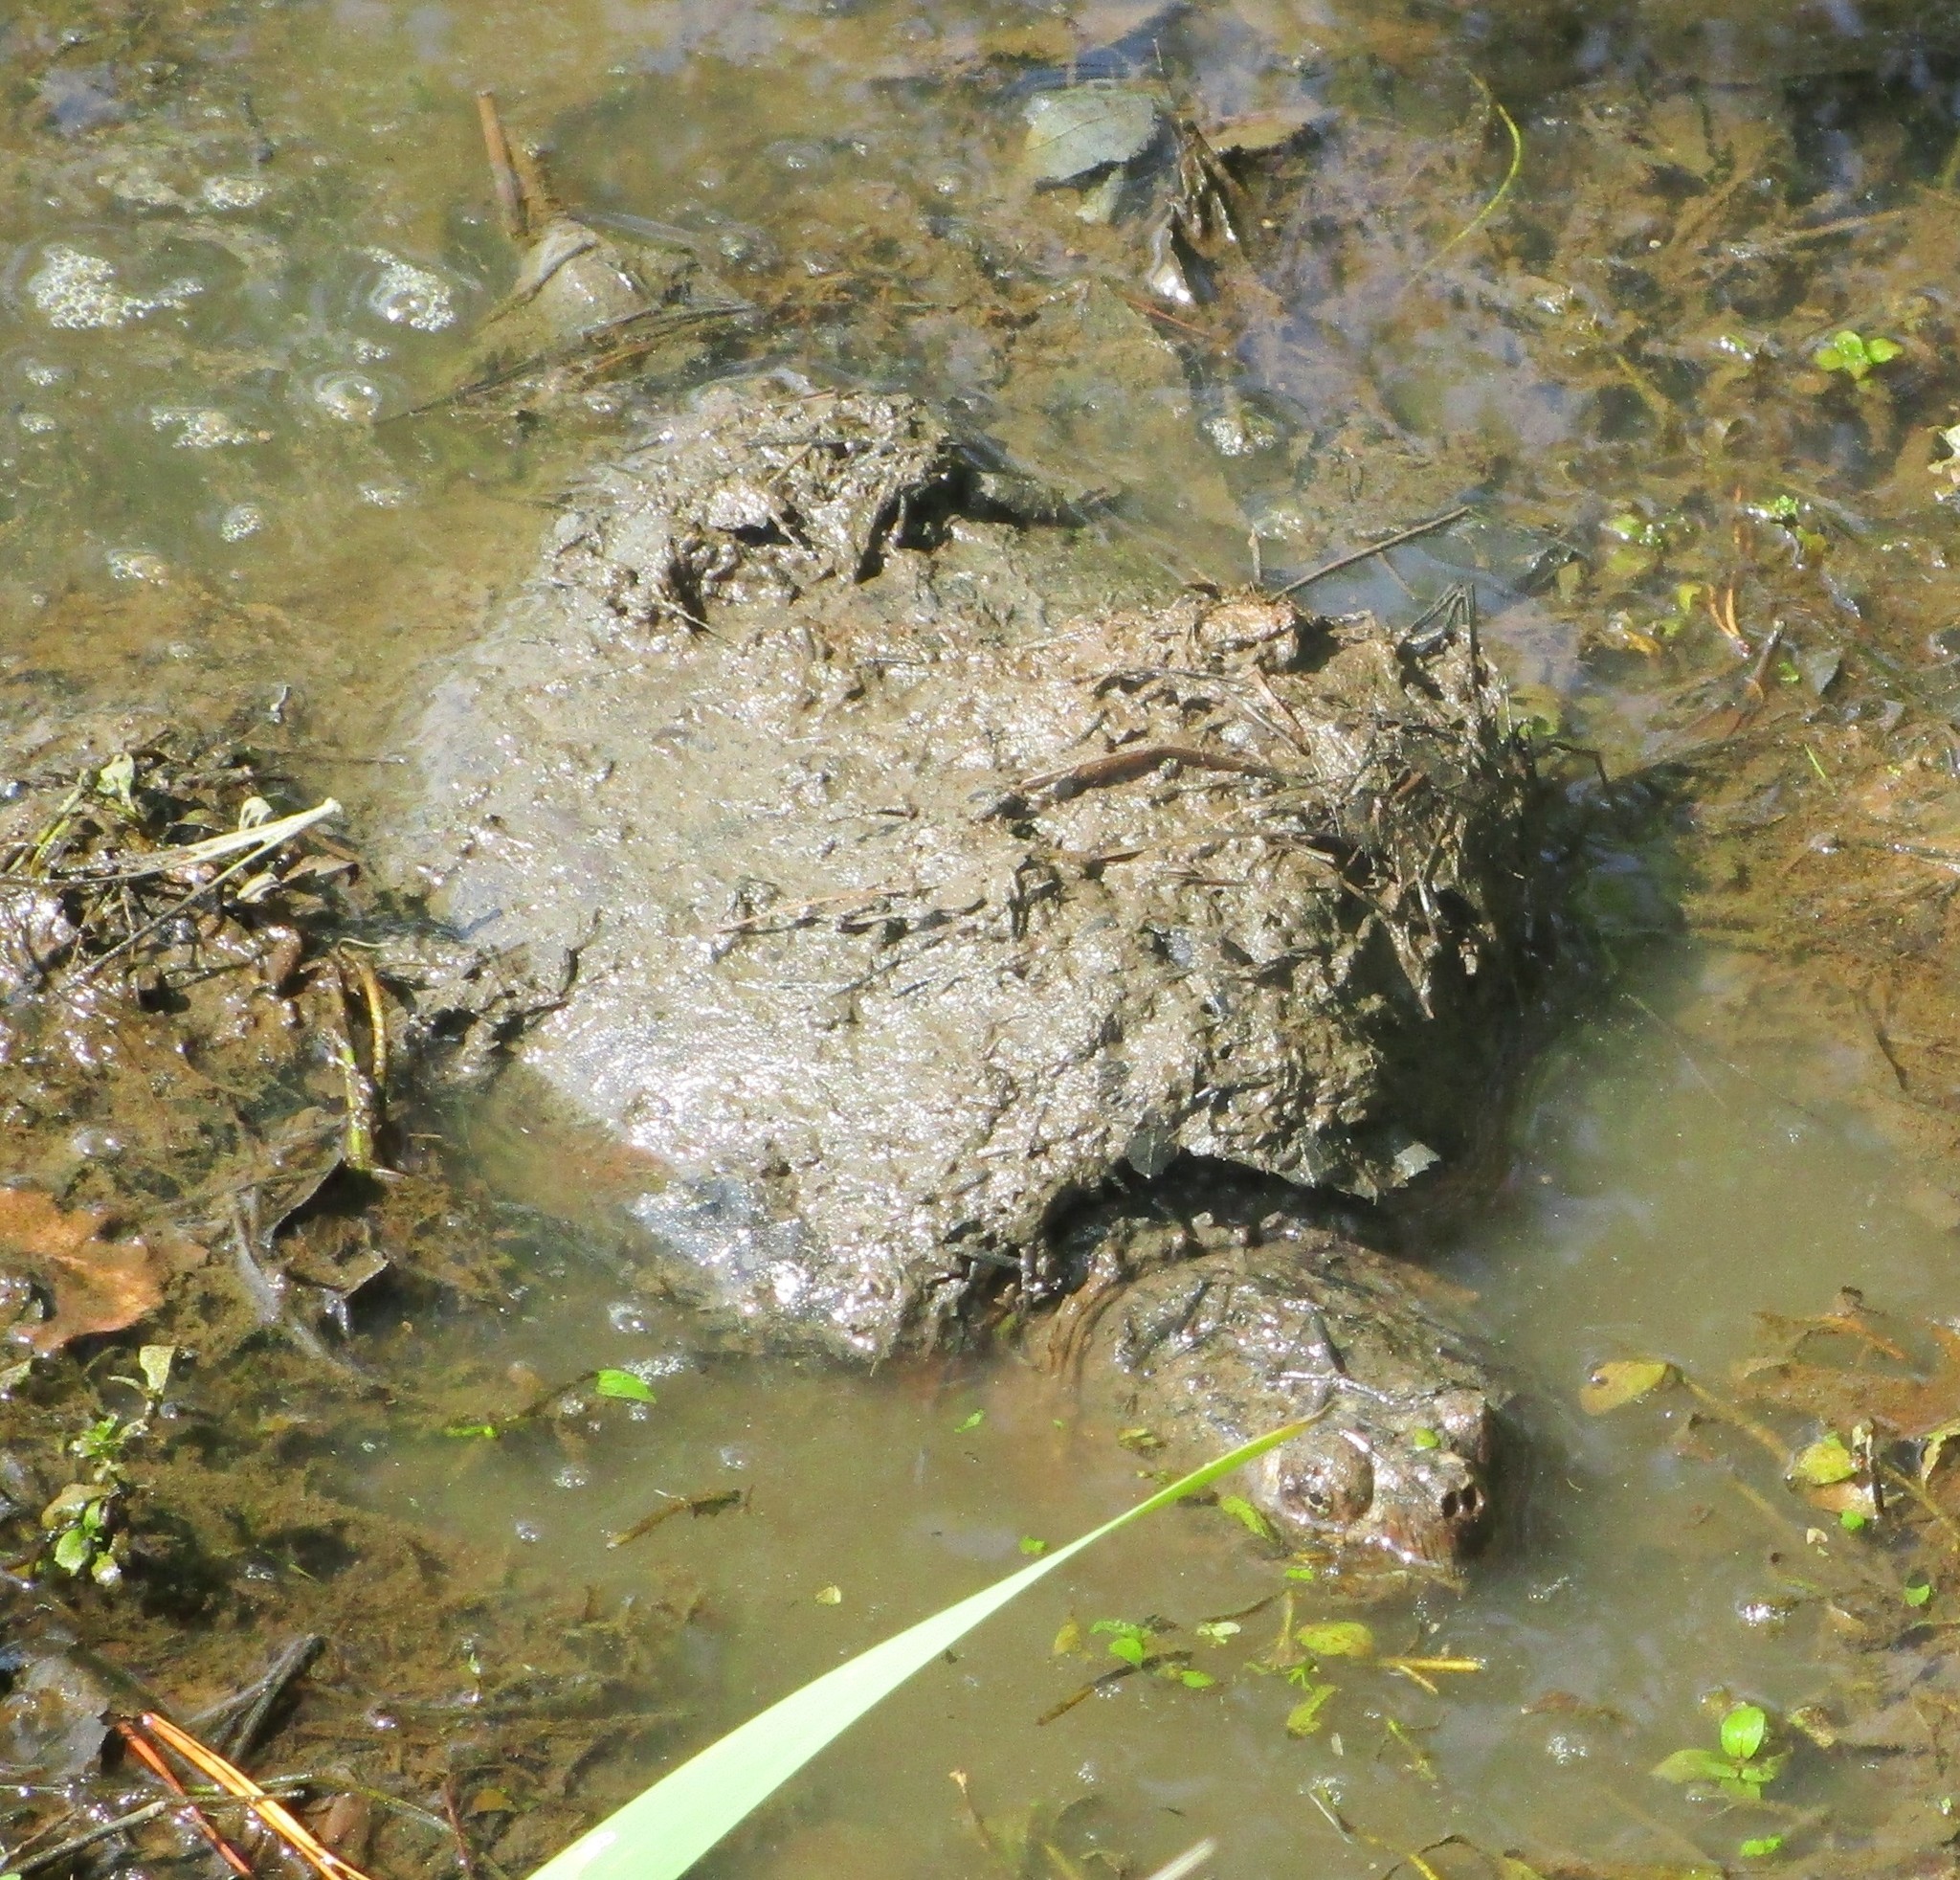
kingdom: Animalia
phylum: Chordata
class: Testudines
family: Chelydridae
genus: Chelydra
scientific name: Chelydra serpentina
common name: Common snapping turtle
